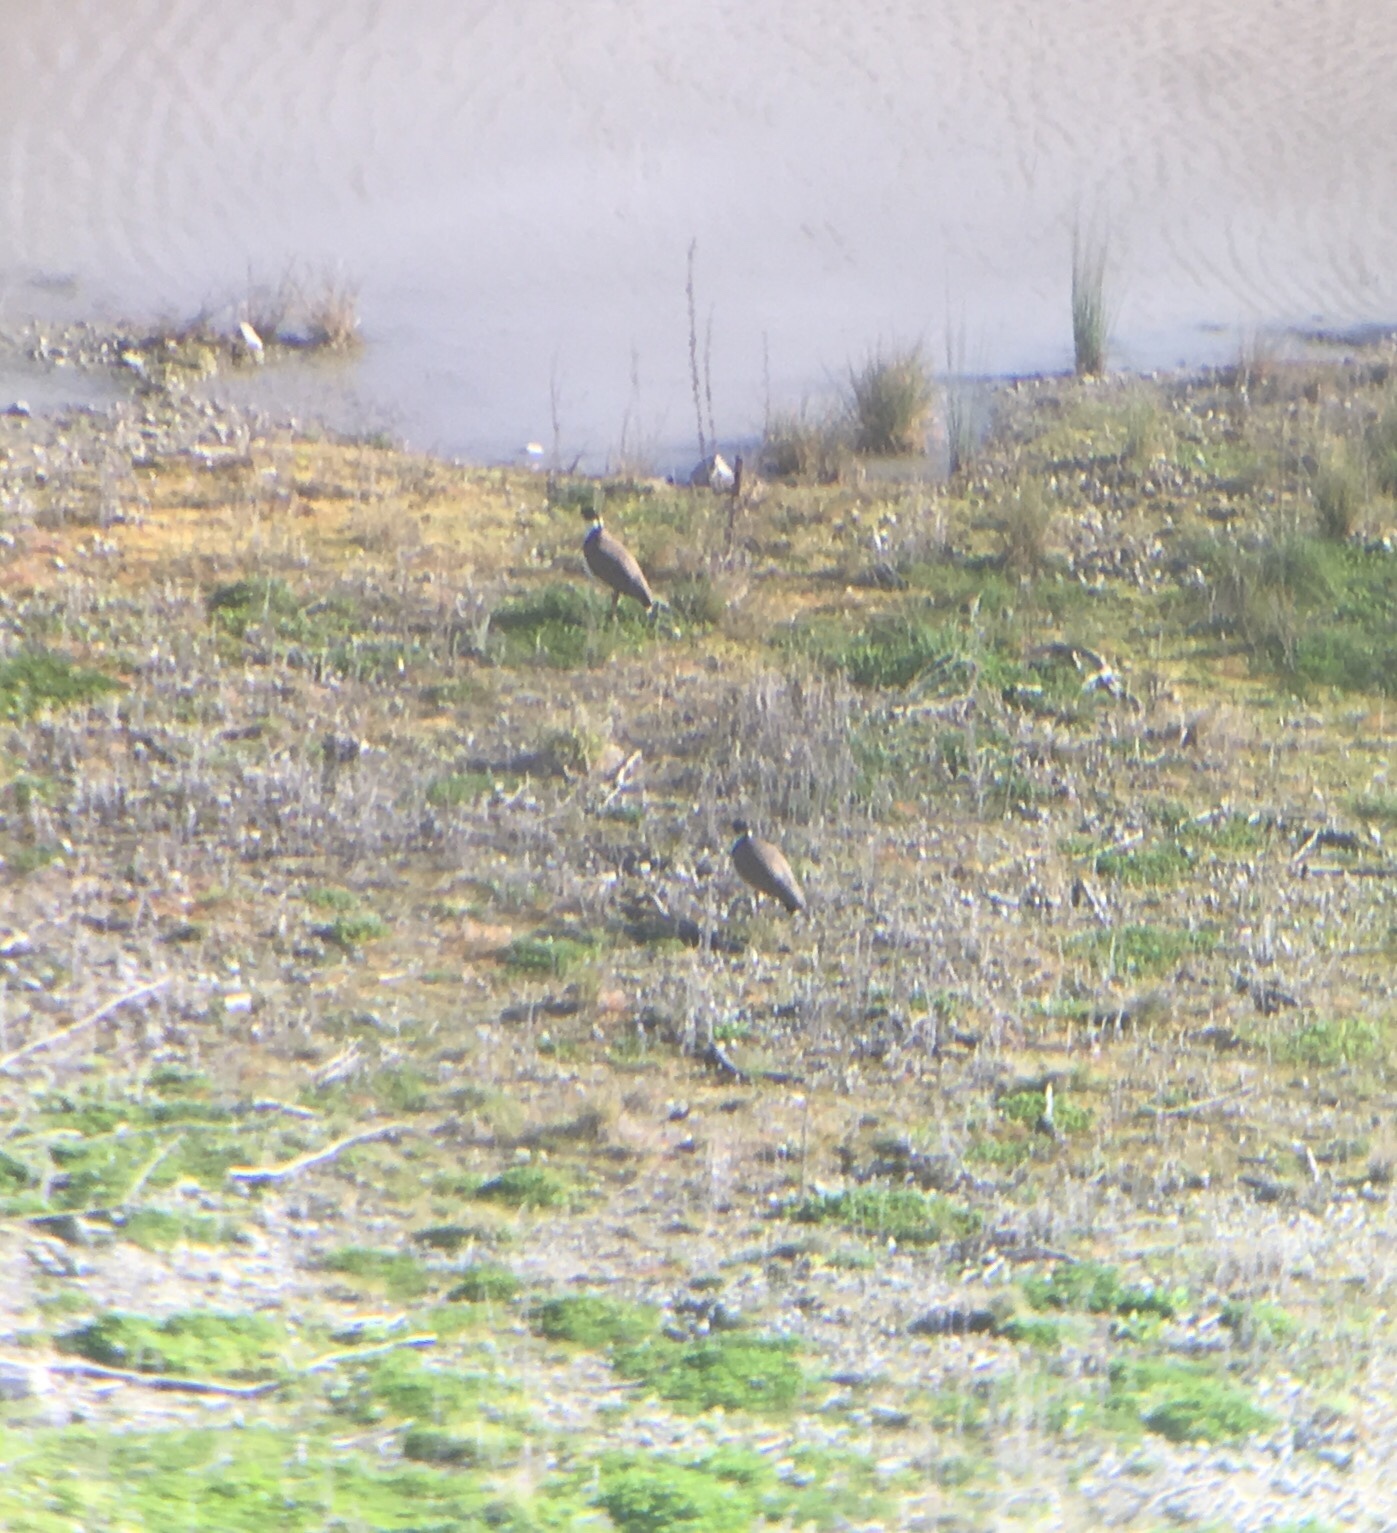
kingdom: Animalia
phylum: Chordata
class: Aves
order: Charadriiformes
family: Charadriidae
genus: Vanellus
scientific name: Vanellus miles
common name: Masked lapwing
